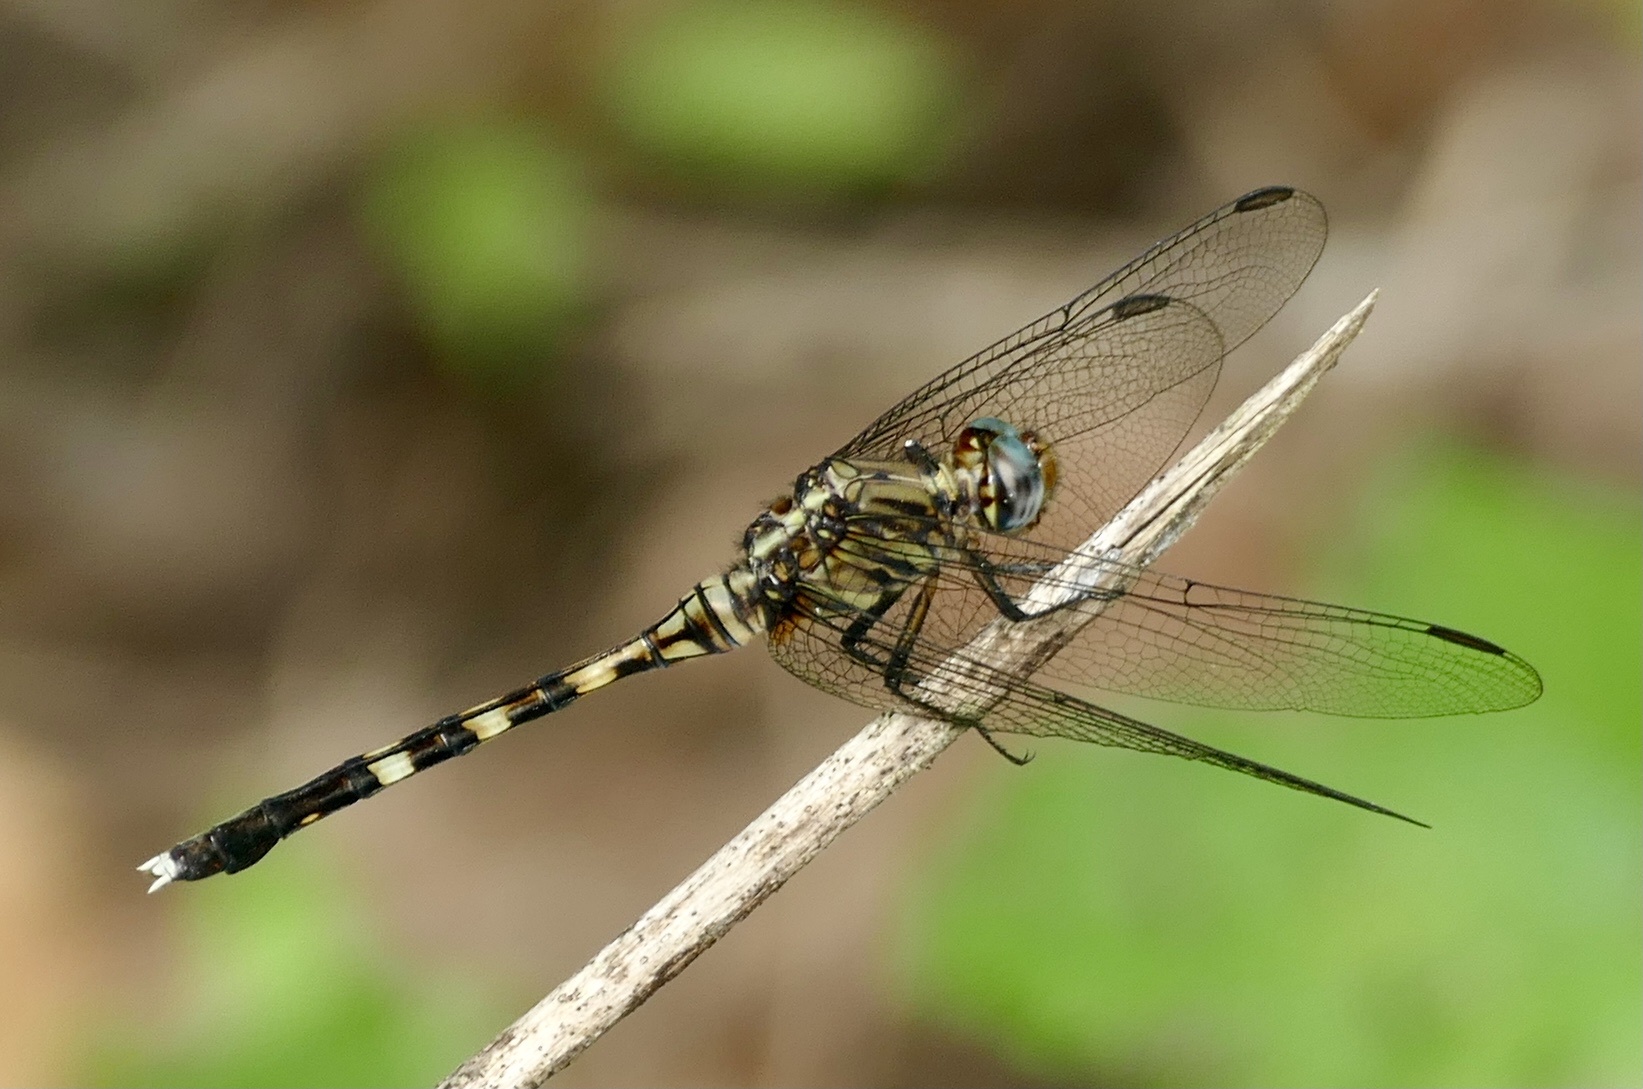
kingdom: Animalia
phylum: Arthropoda
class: Insecta
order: Odonata
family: Libellulidae
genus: Orthetrum
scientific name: Orthetrum stemmale
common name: Bold skimmer
